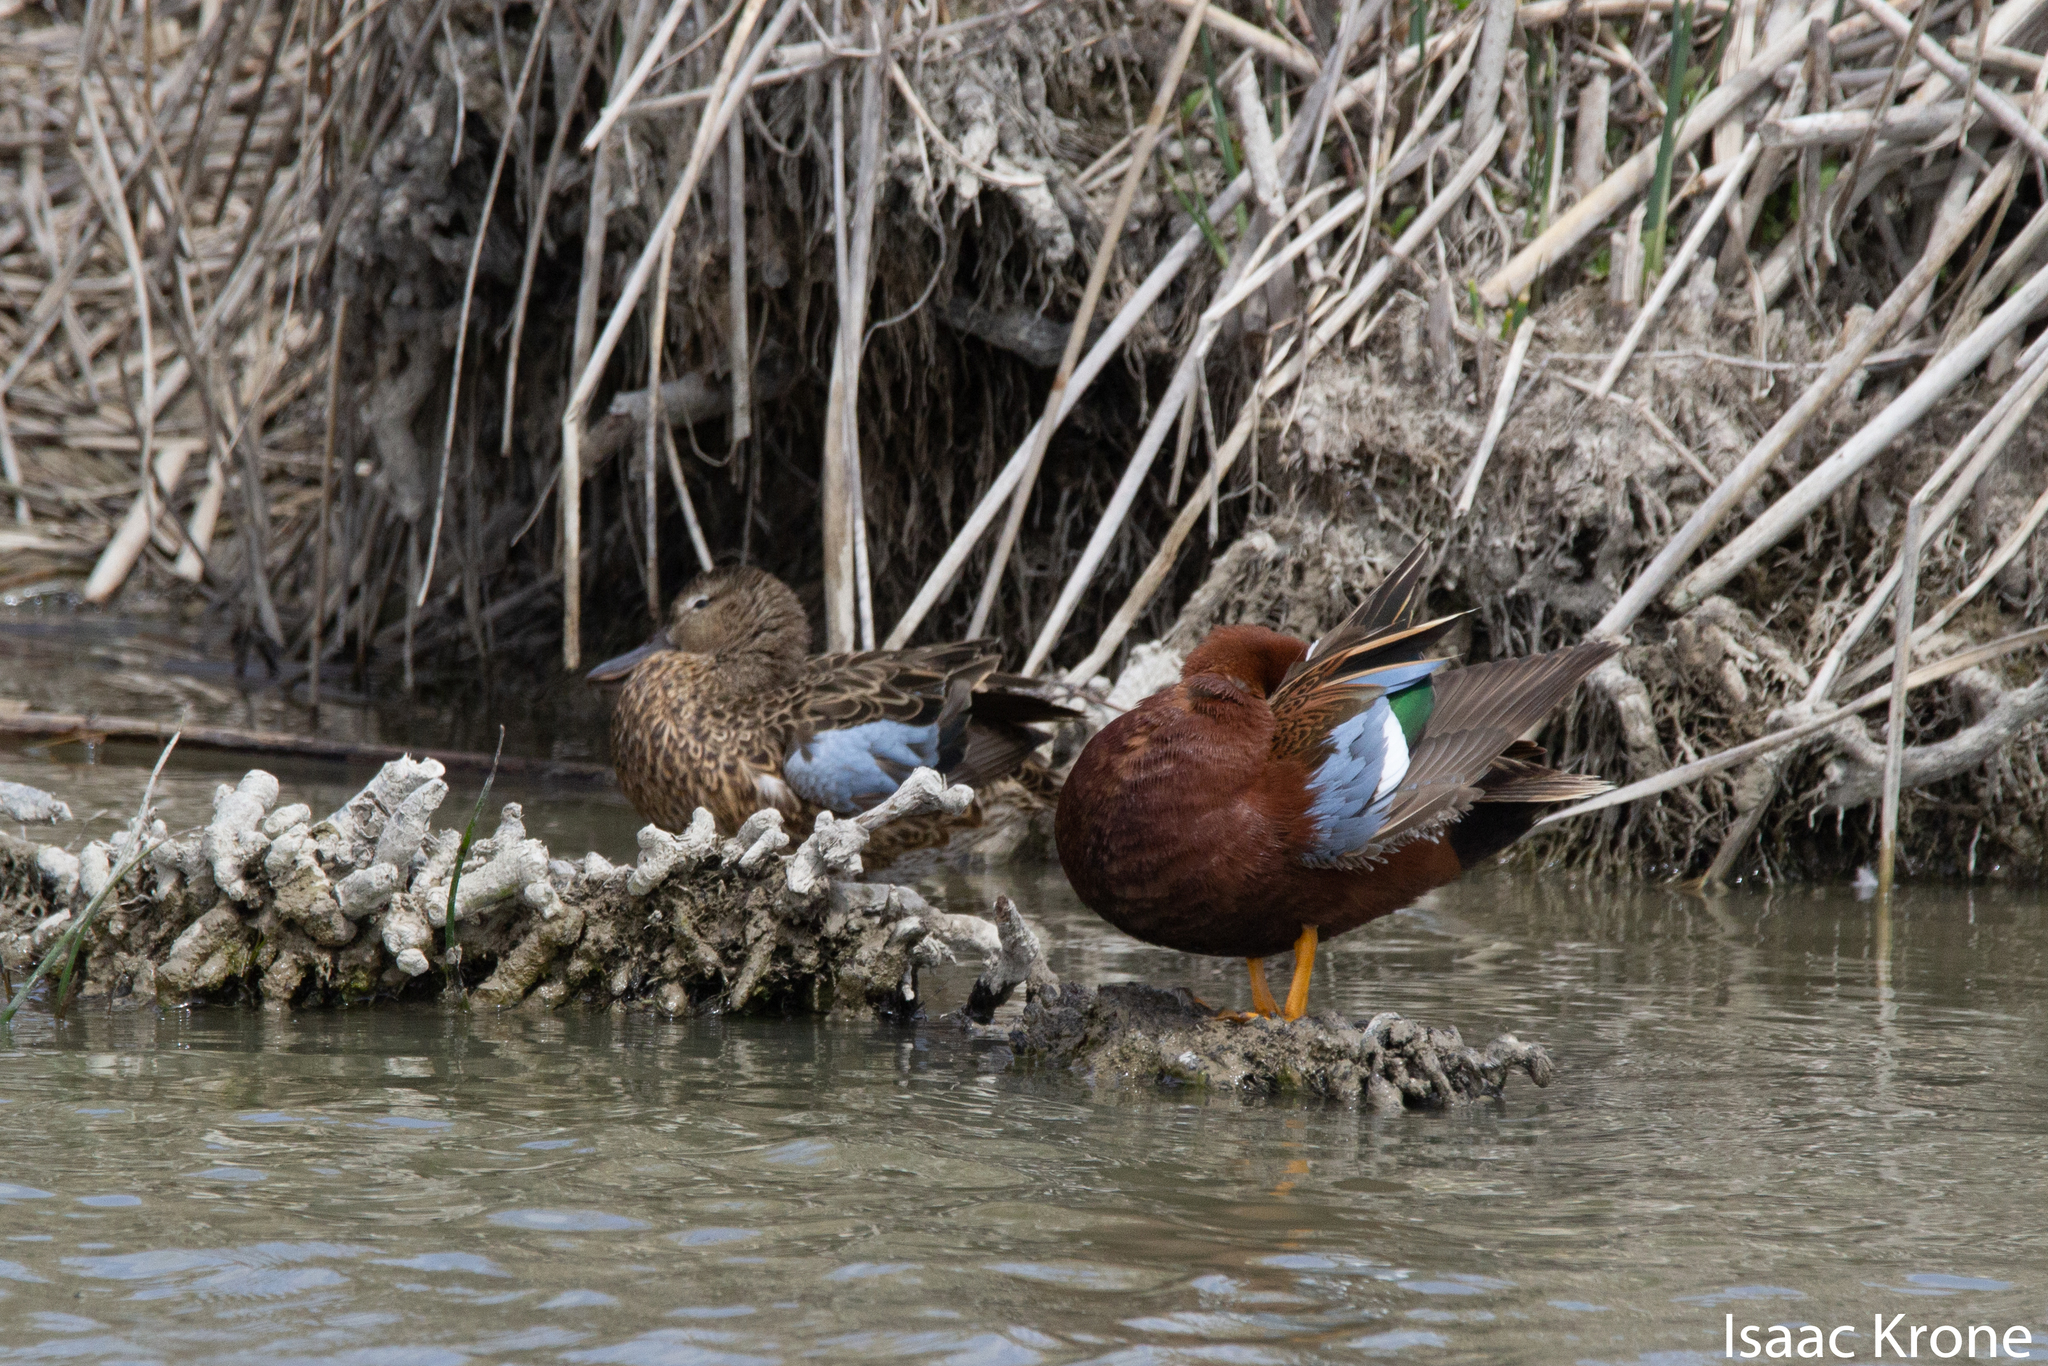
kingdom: Animalia
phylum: Chordata
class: Aves
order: Anseriformes
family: Anatidae
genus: Spatula
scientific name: Spatula cyanoptera
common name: Cinnamon teal
